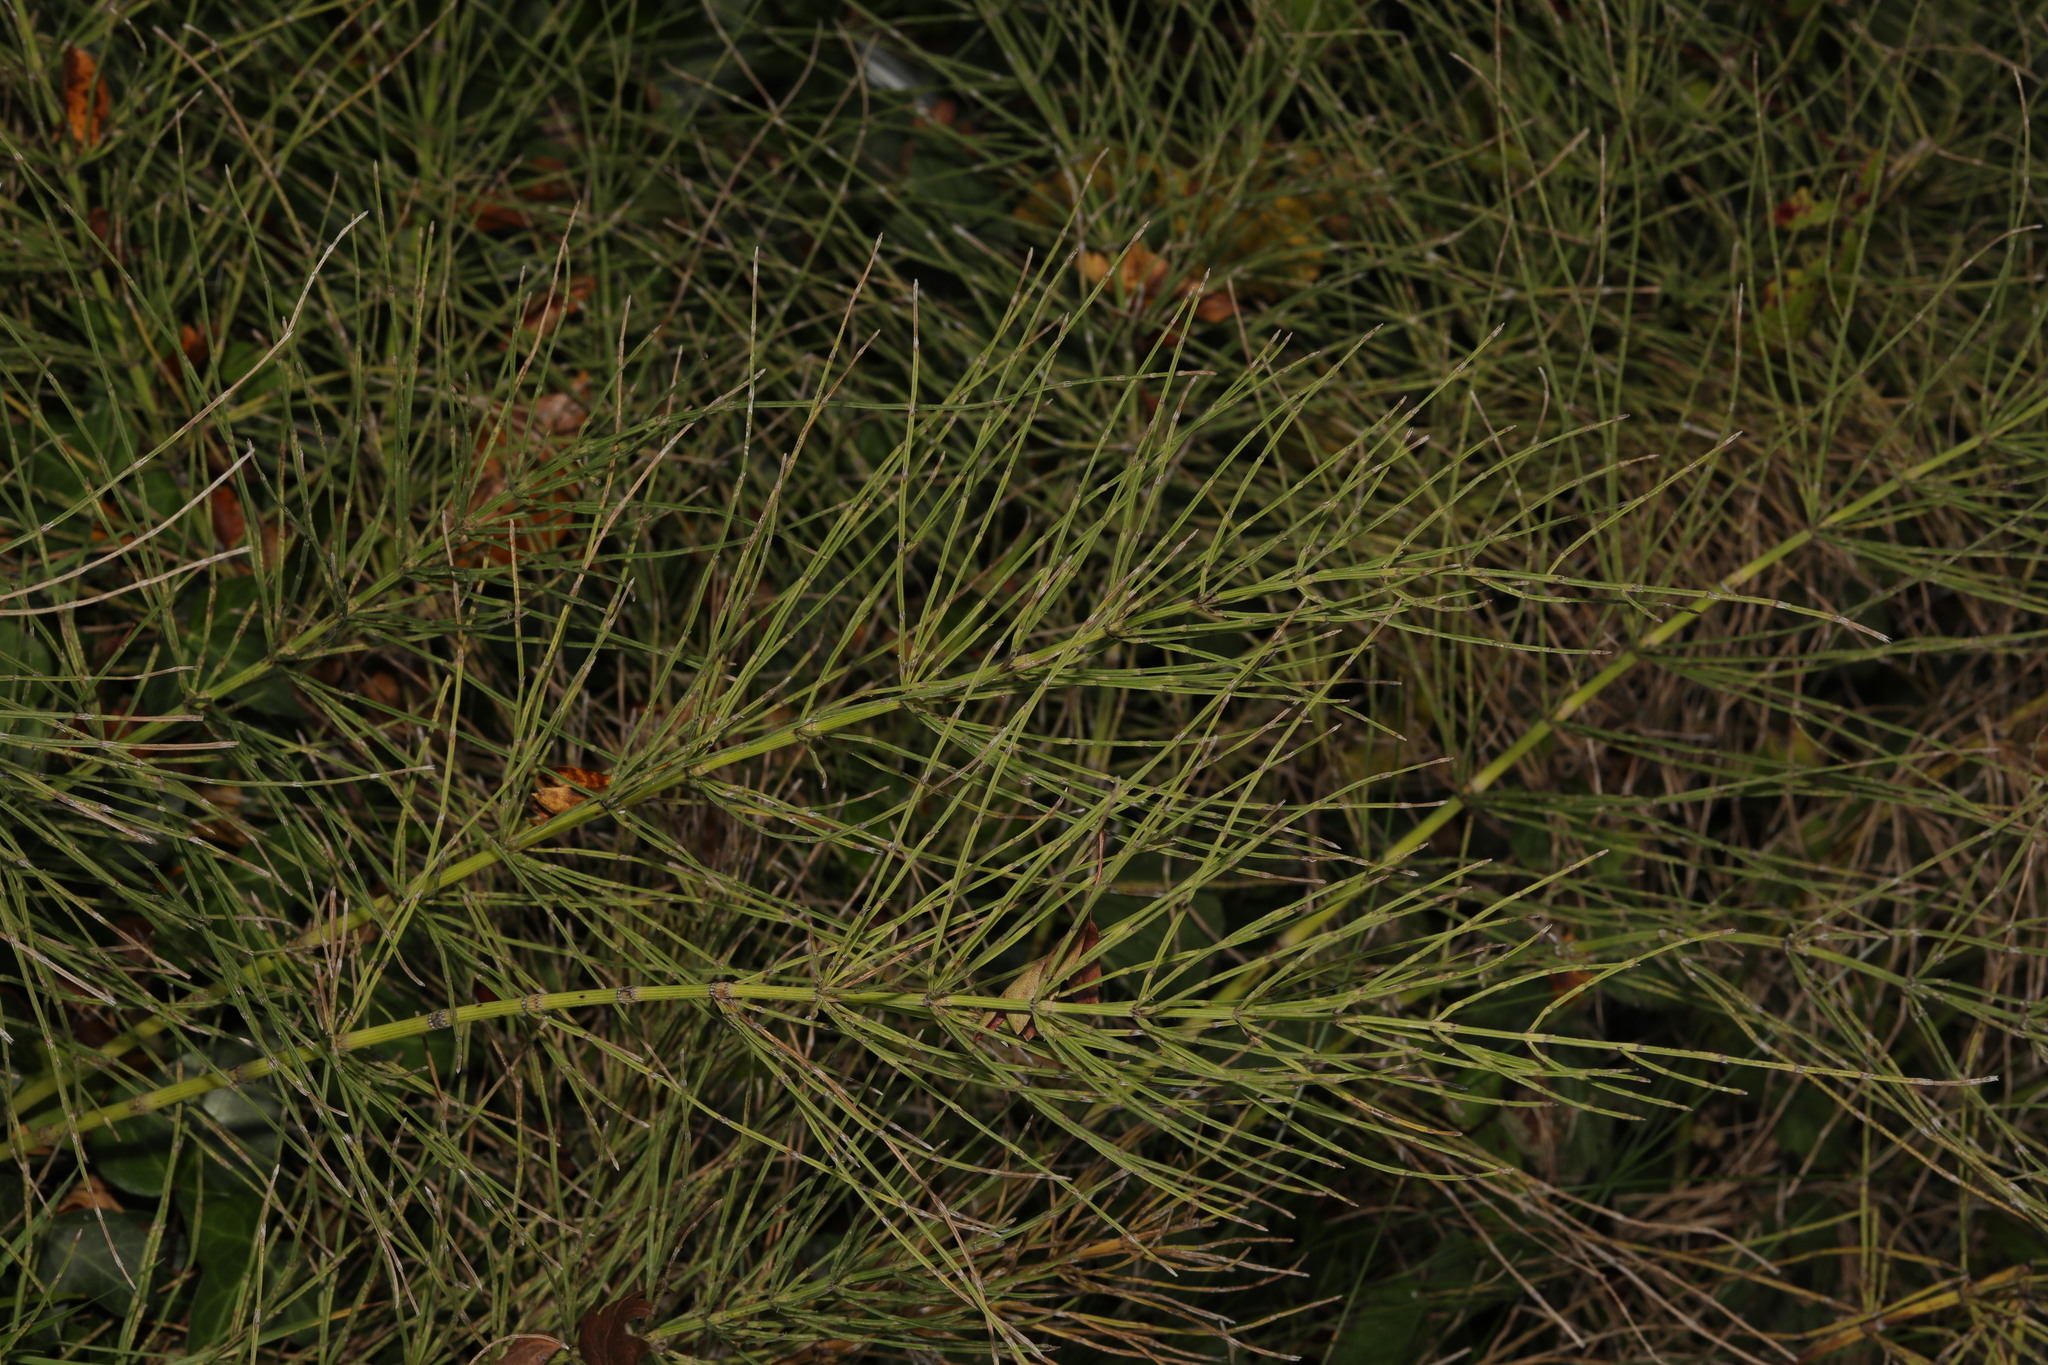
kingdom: Plantae
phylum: Tracheophyta
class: Polypodiopsida
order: Equisetales
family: Equisetaceae
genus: Equisetum
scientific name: Equisetum arvense
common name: Field horsetail
